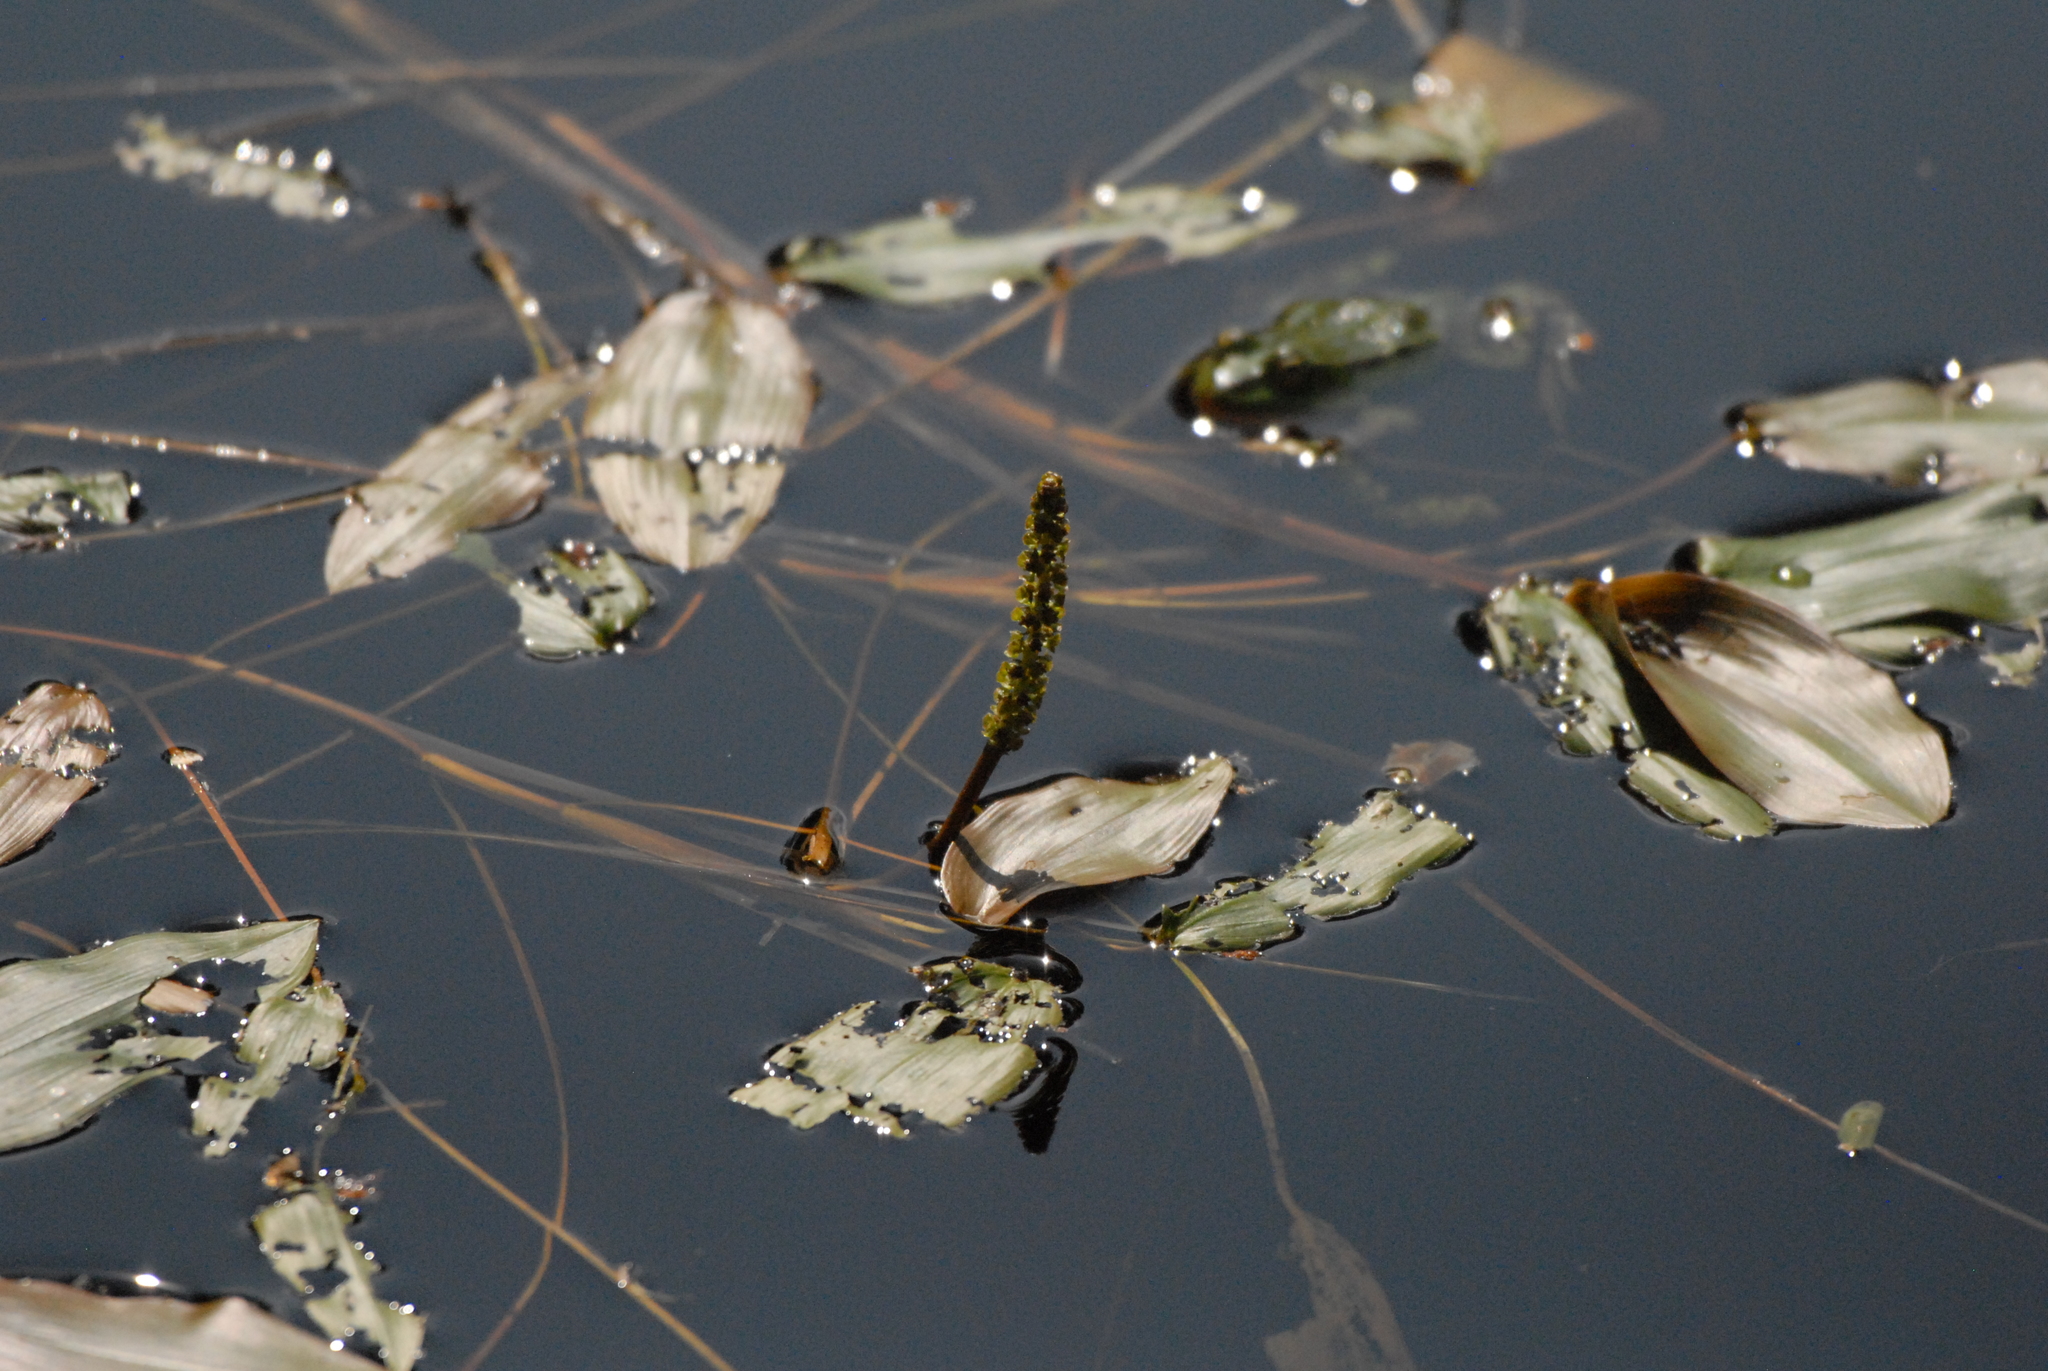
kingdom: Plantae
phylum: Tracheophyta
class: Liliopsida
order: Alismatales
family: Potamogetonaceae
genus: Potamogeton
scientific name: Potamogeton natans
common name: Broad-leaved pondweed
